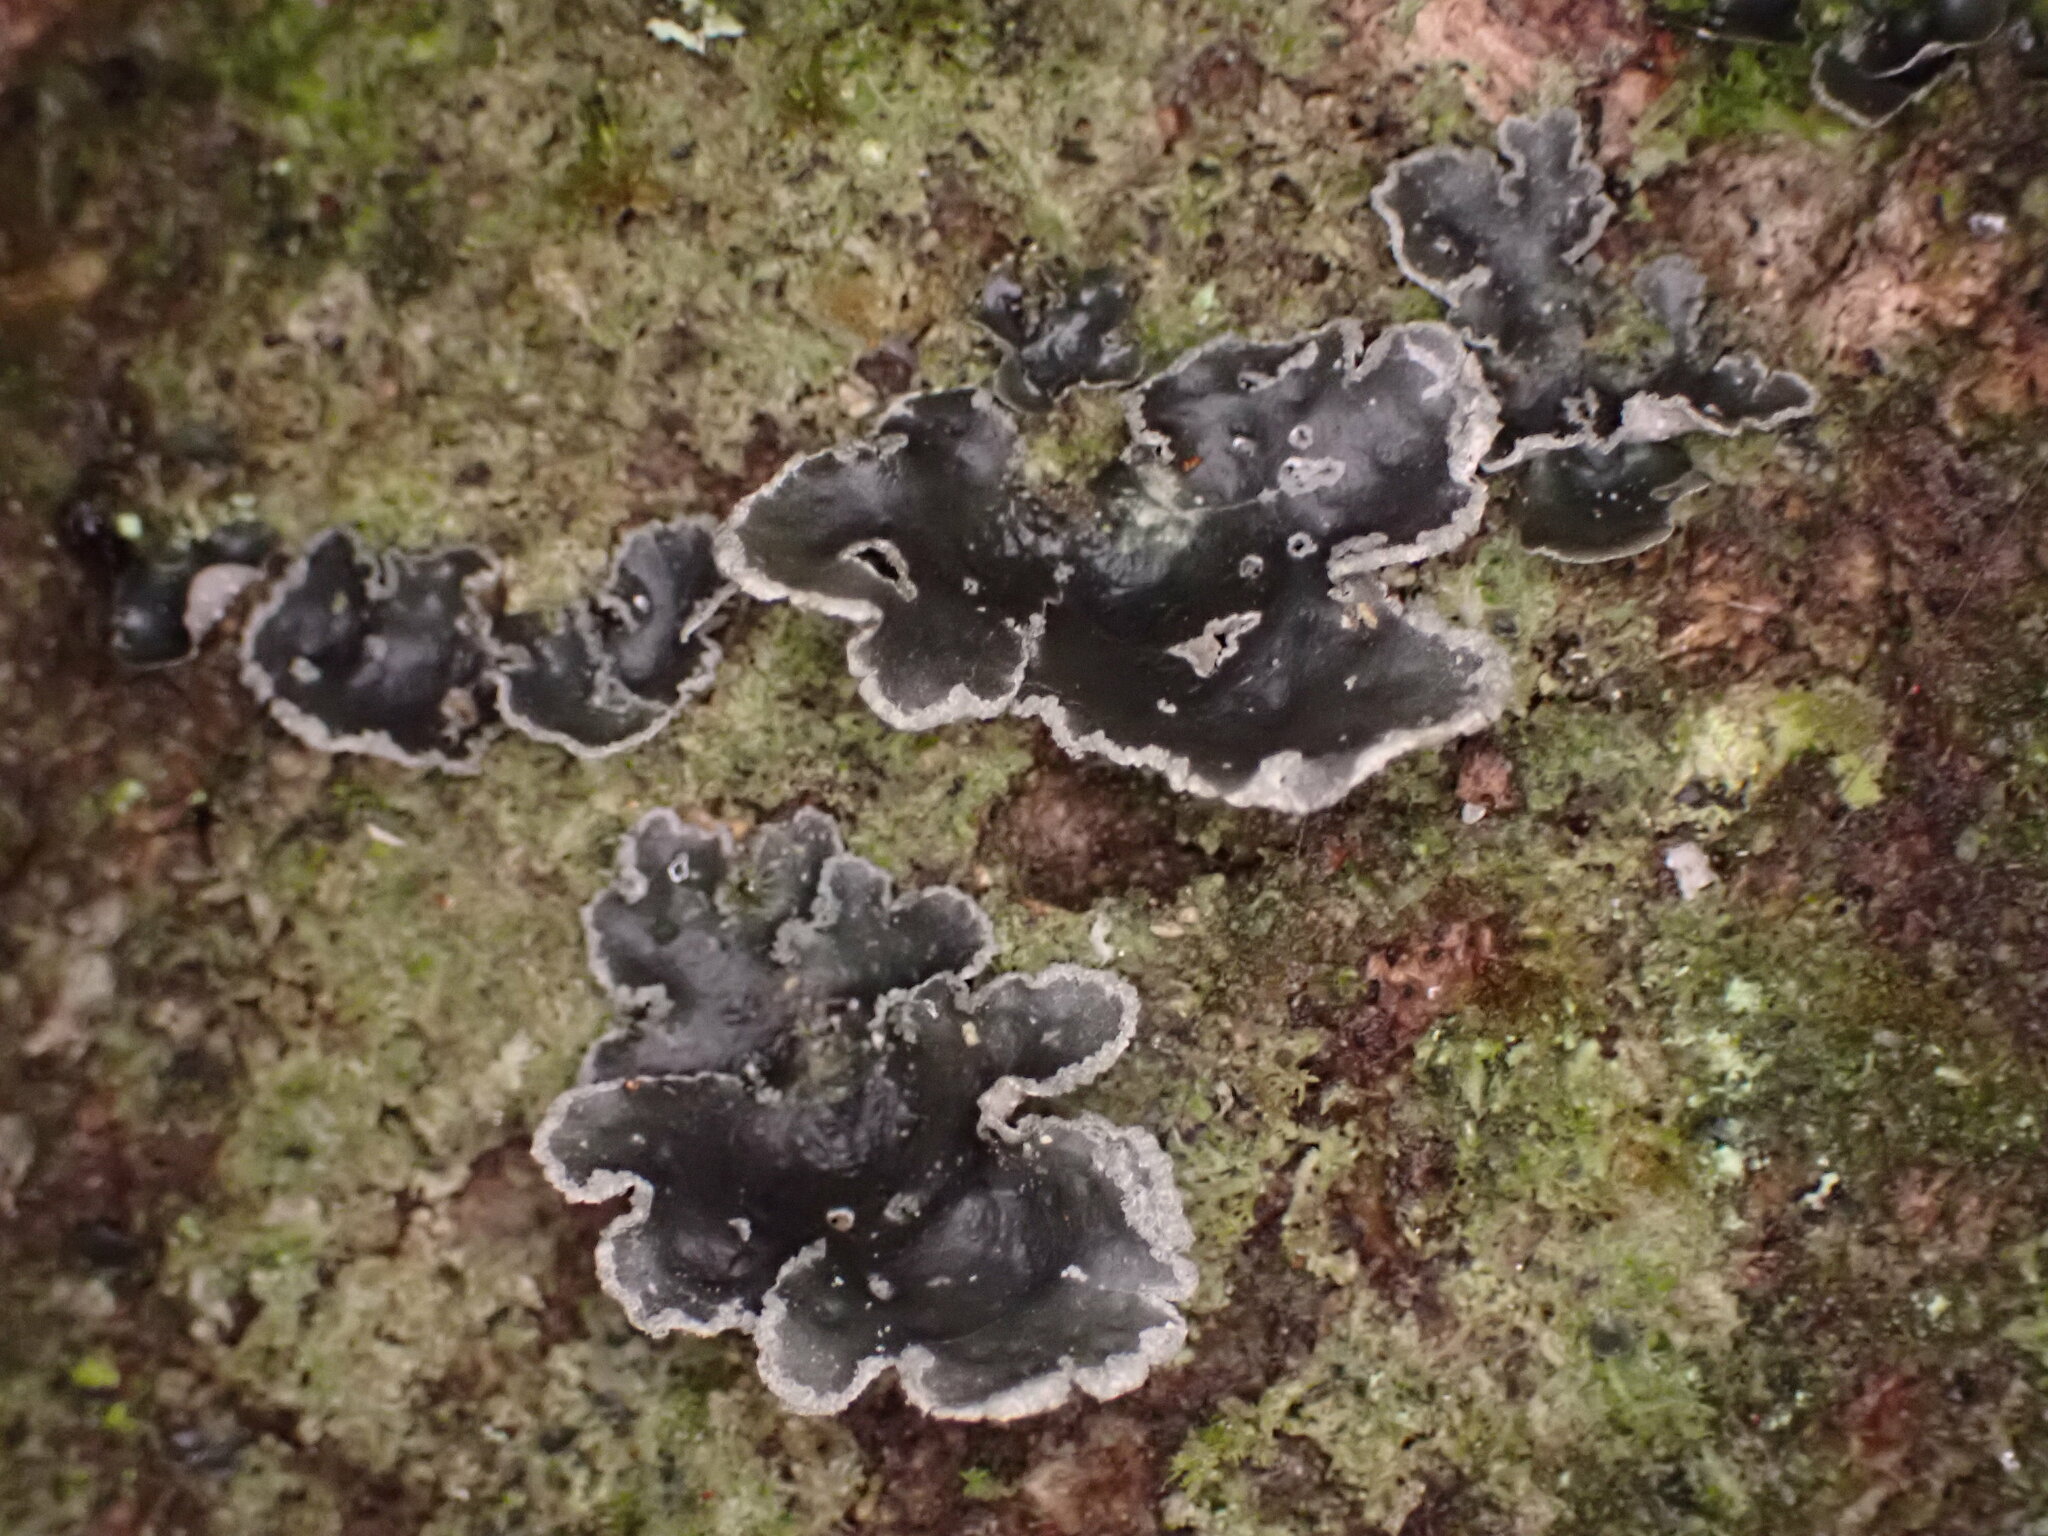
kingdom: Fungi
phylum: Ascomycota
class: Lecanoromycetes
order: Peltigerales
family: Lobariaceae
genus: Sticta
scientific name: Sticta limbata
